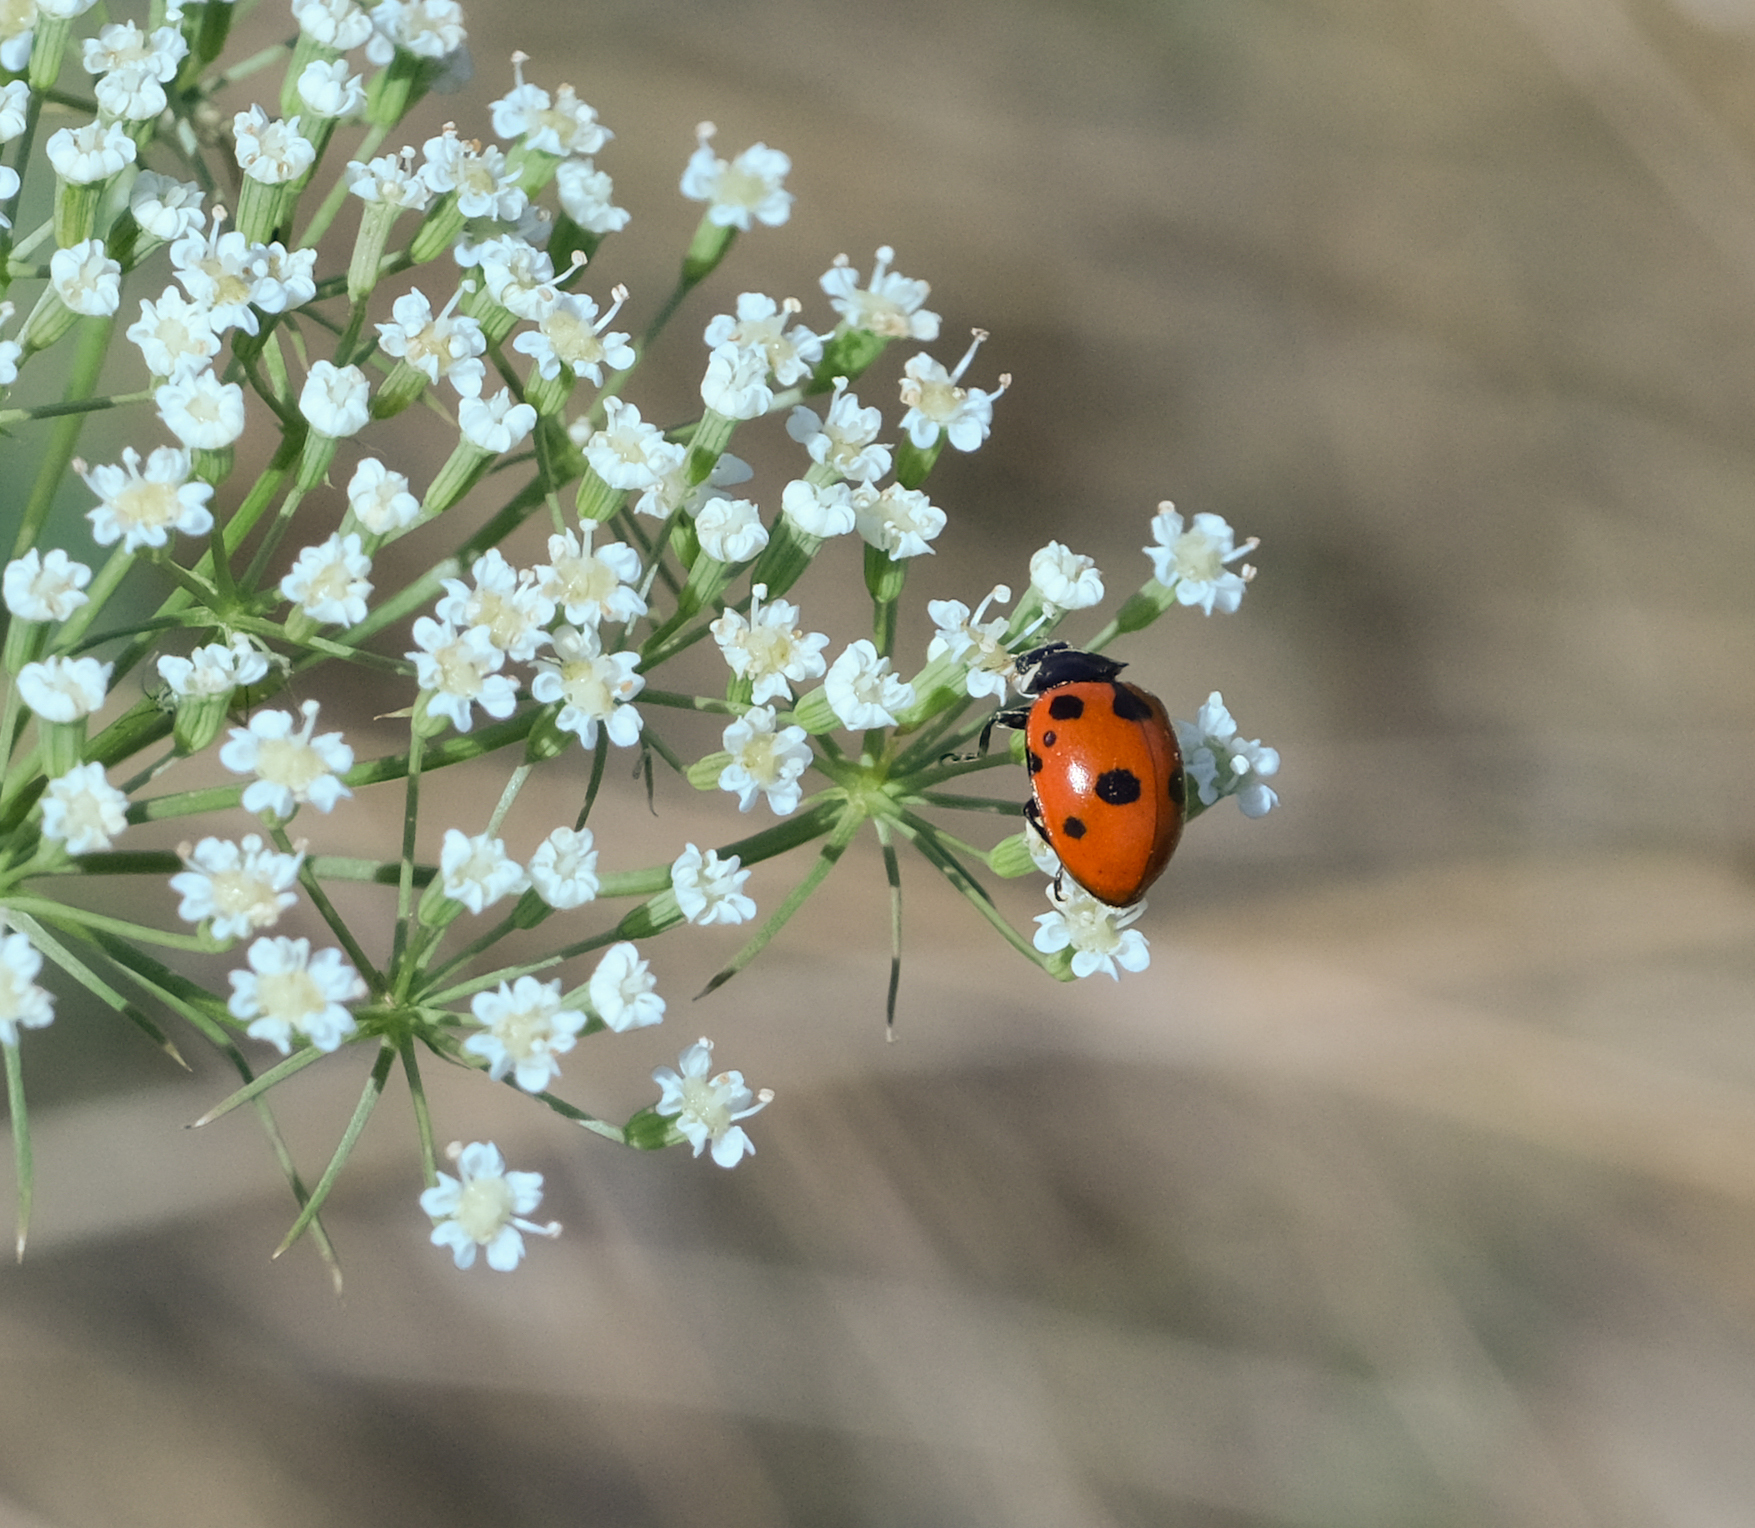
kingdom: Animalia
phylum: Arthropoda
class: Insecta
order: Coleoptera
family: Coccinellidae
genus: Ceratomegilla
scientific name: Ceratomegilla undecimnotata
